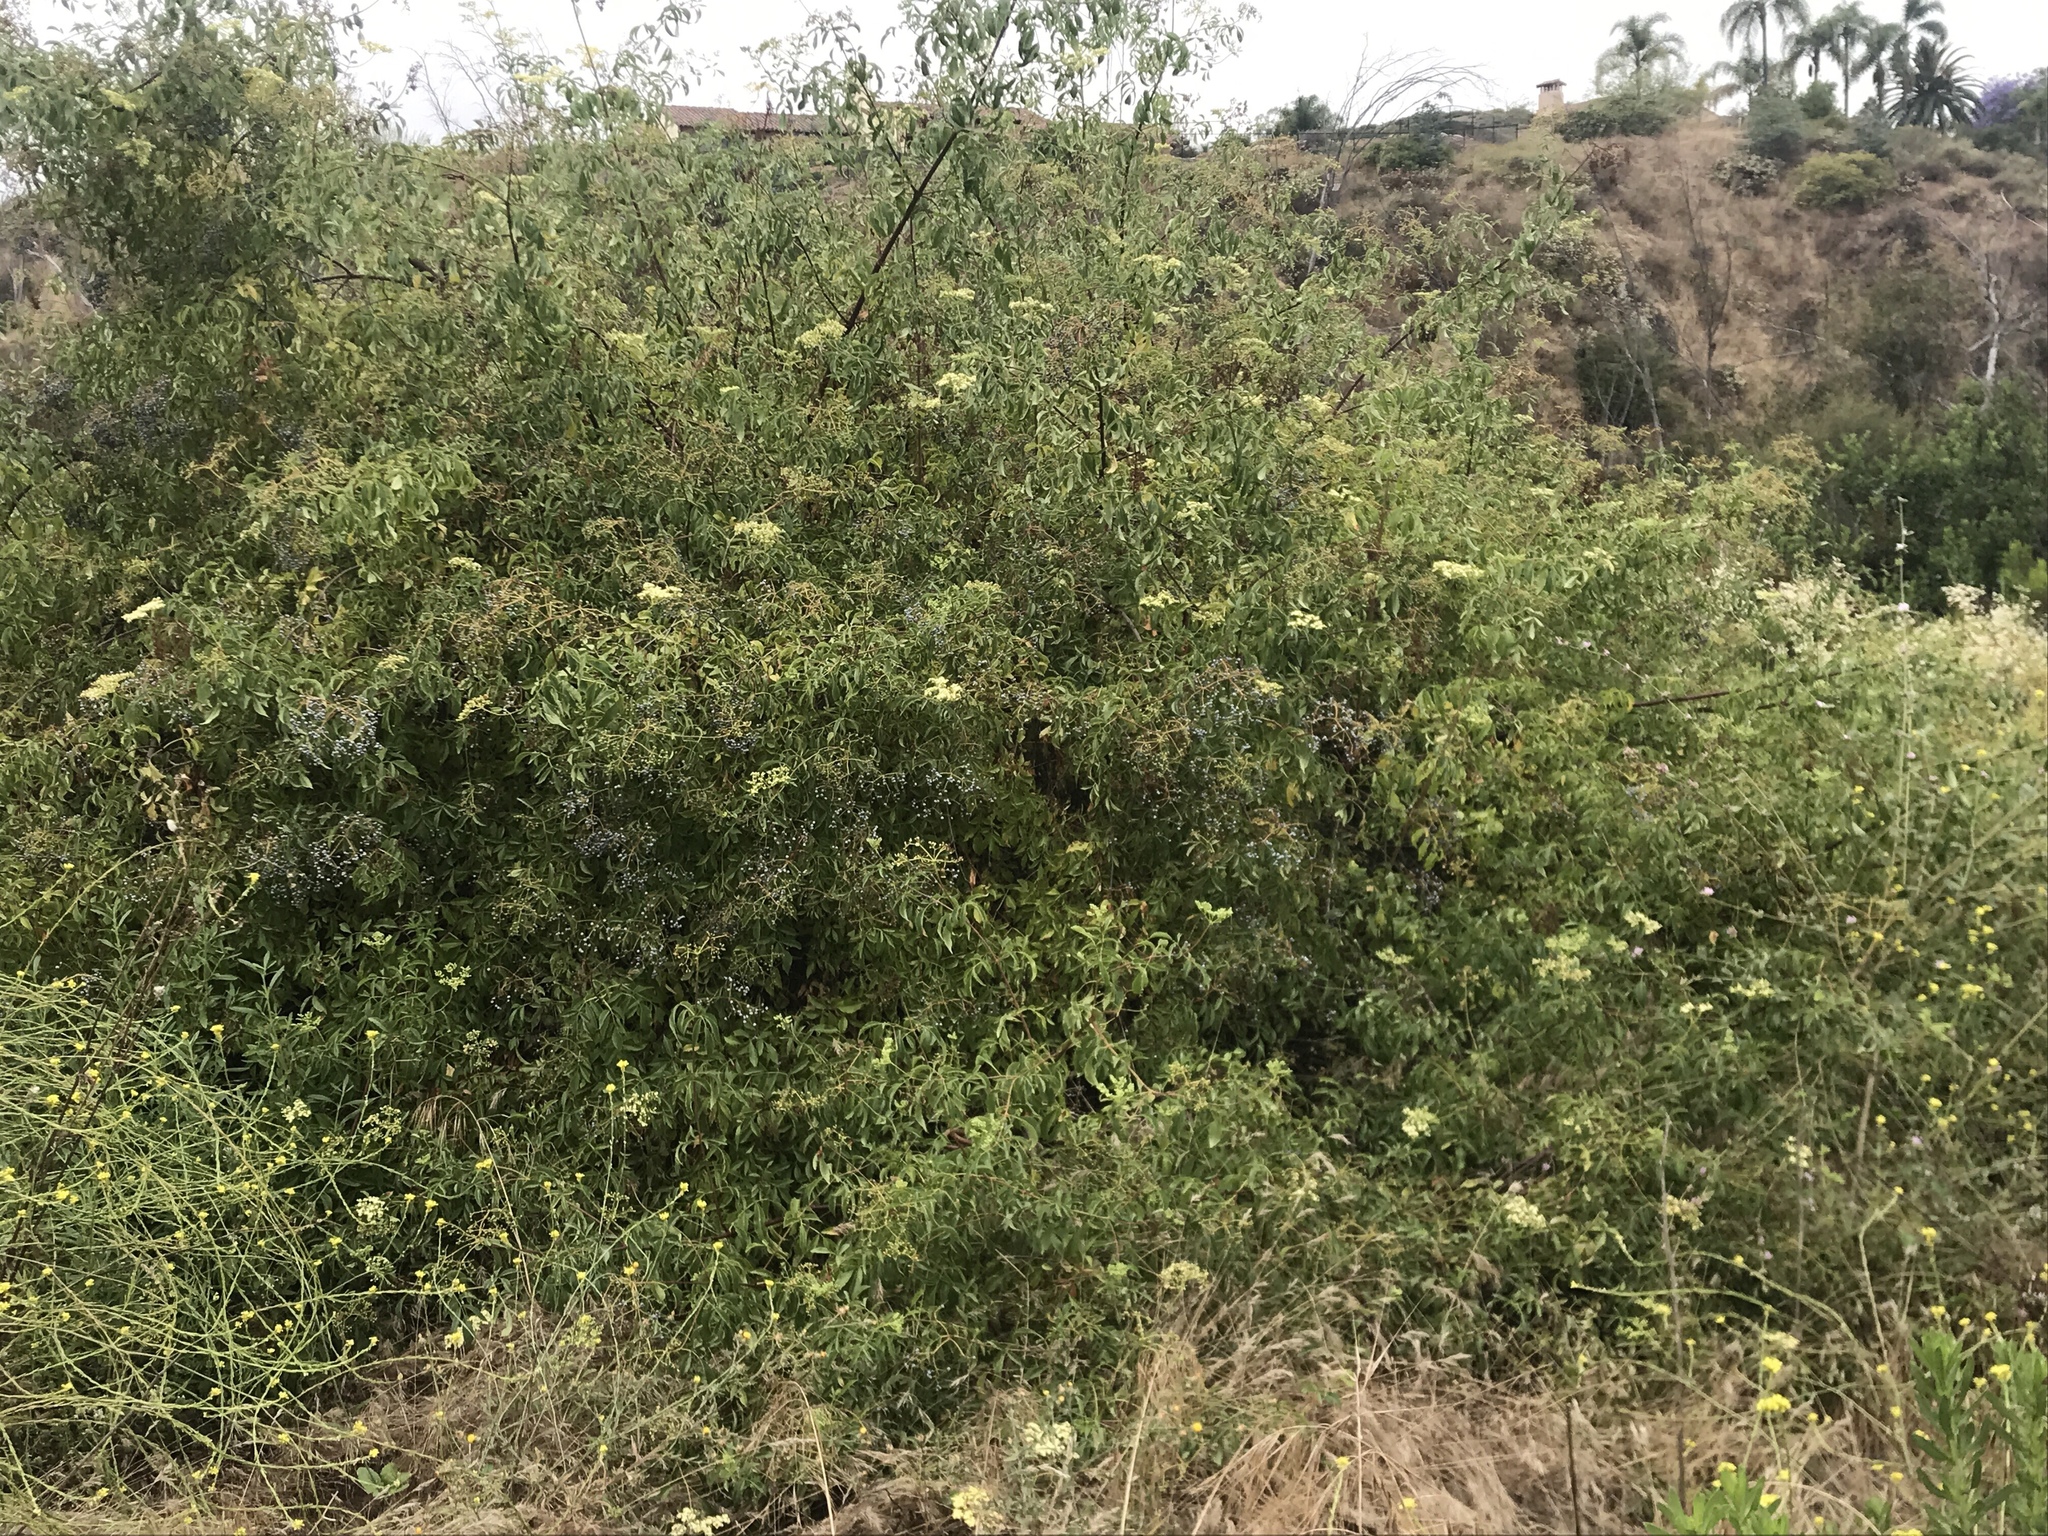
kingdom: Plantae
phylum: Tracheophyta
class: Magnoliopsida
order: Dipsacales
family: Viburnaceae
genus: Sambucus
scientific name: Sambucus cerulea
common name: Blue elder
